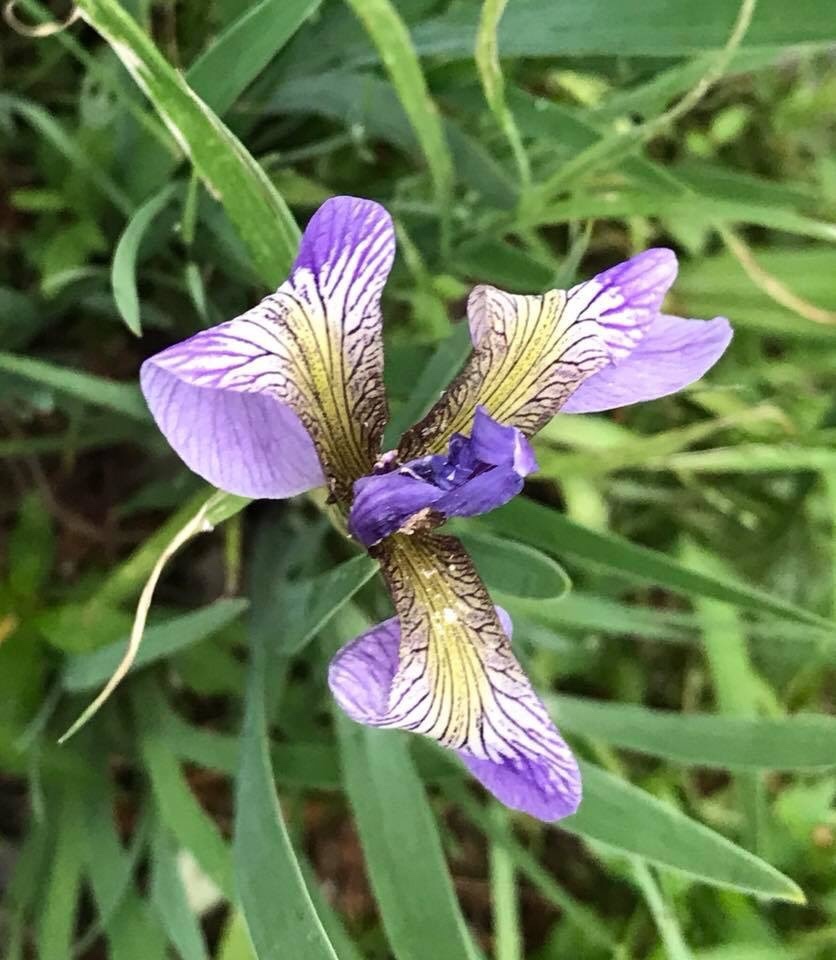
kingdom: Plantae
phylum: Tracheophyta
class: Liliopsida
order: Asparagales
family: Iridaceae
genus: Iris
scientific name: Iris versicolor
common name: Purple iris
